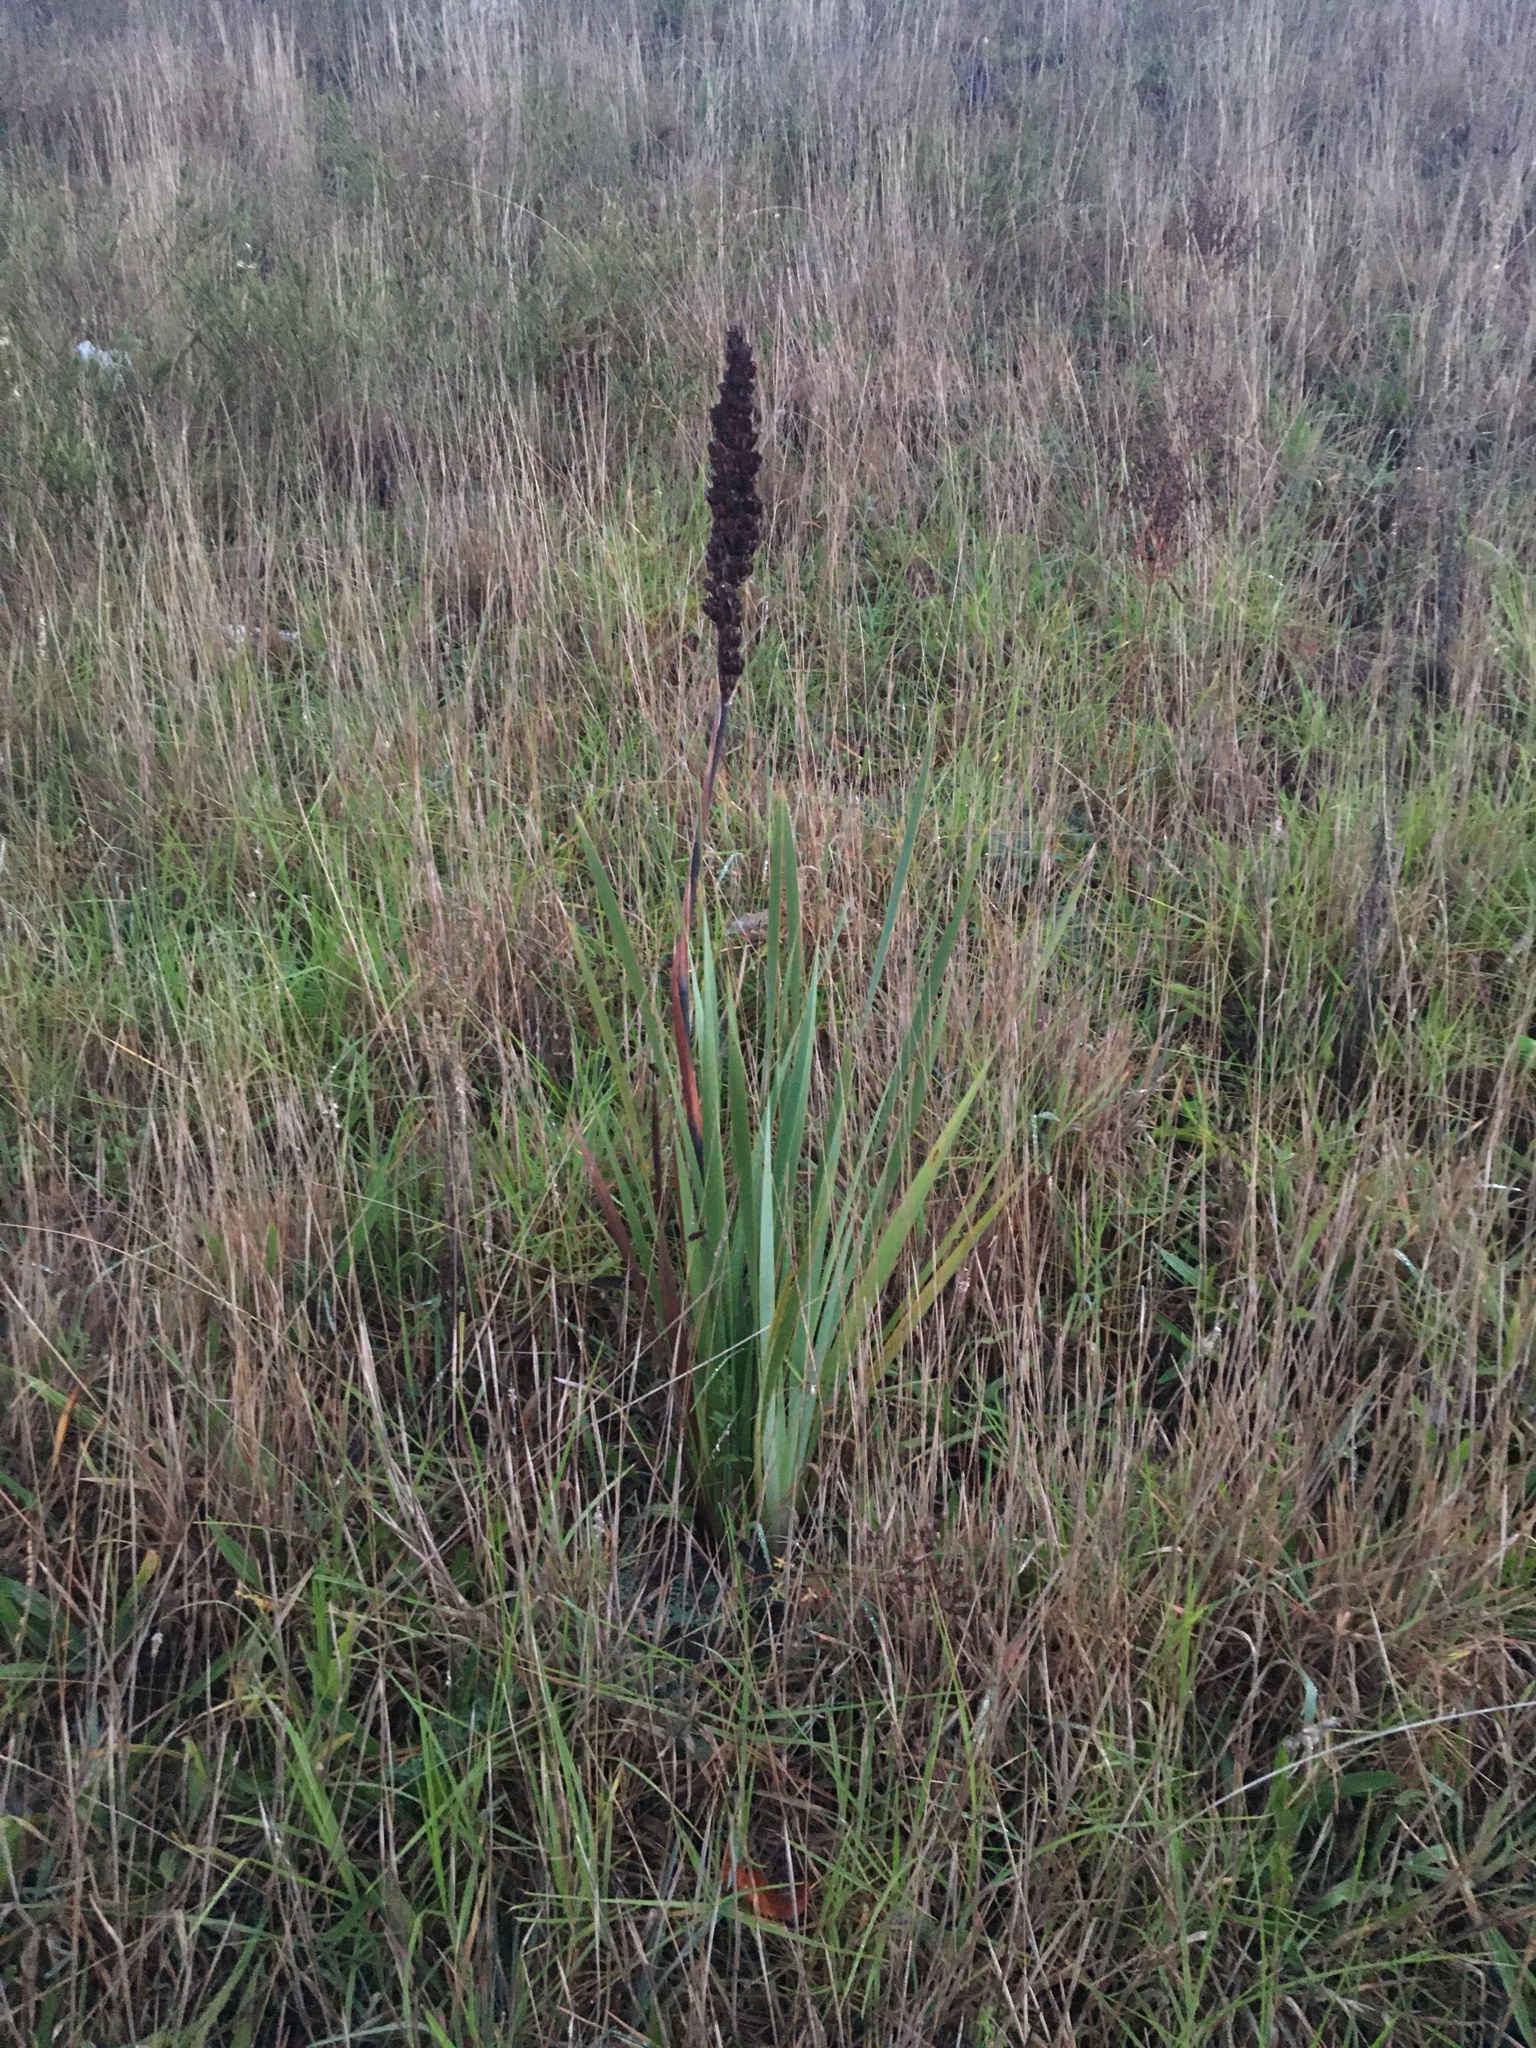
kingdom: Plantae
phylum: Tracheophyta
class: Liliopsida
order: Asparagales
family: Iridaceae
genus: Aristea
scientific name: Aristea capitata
